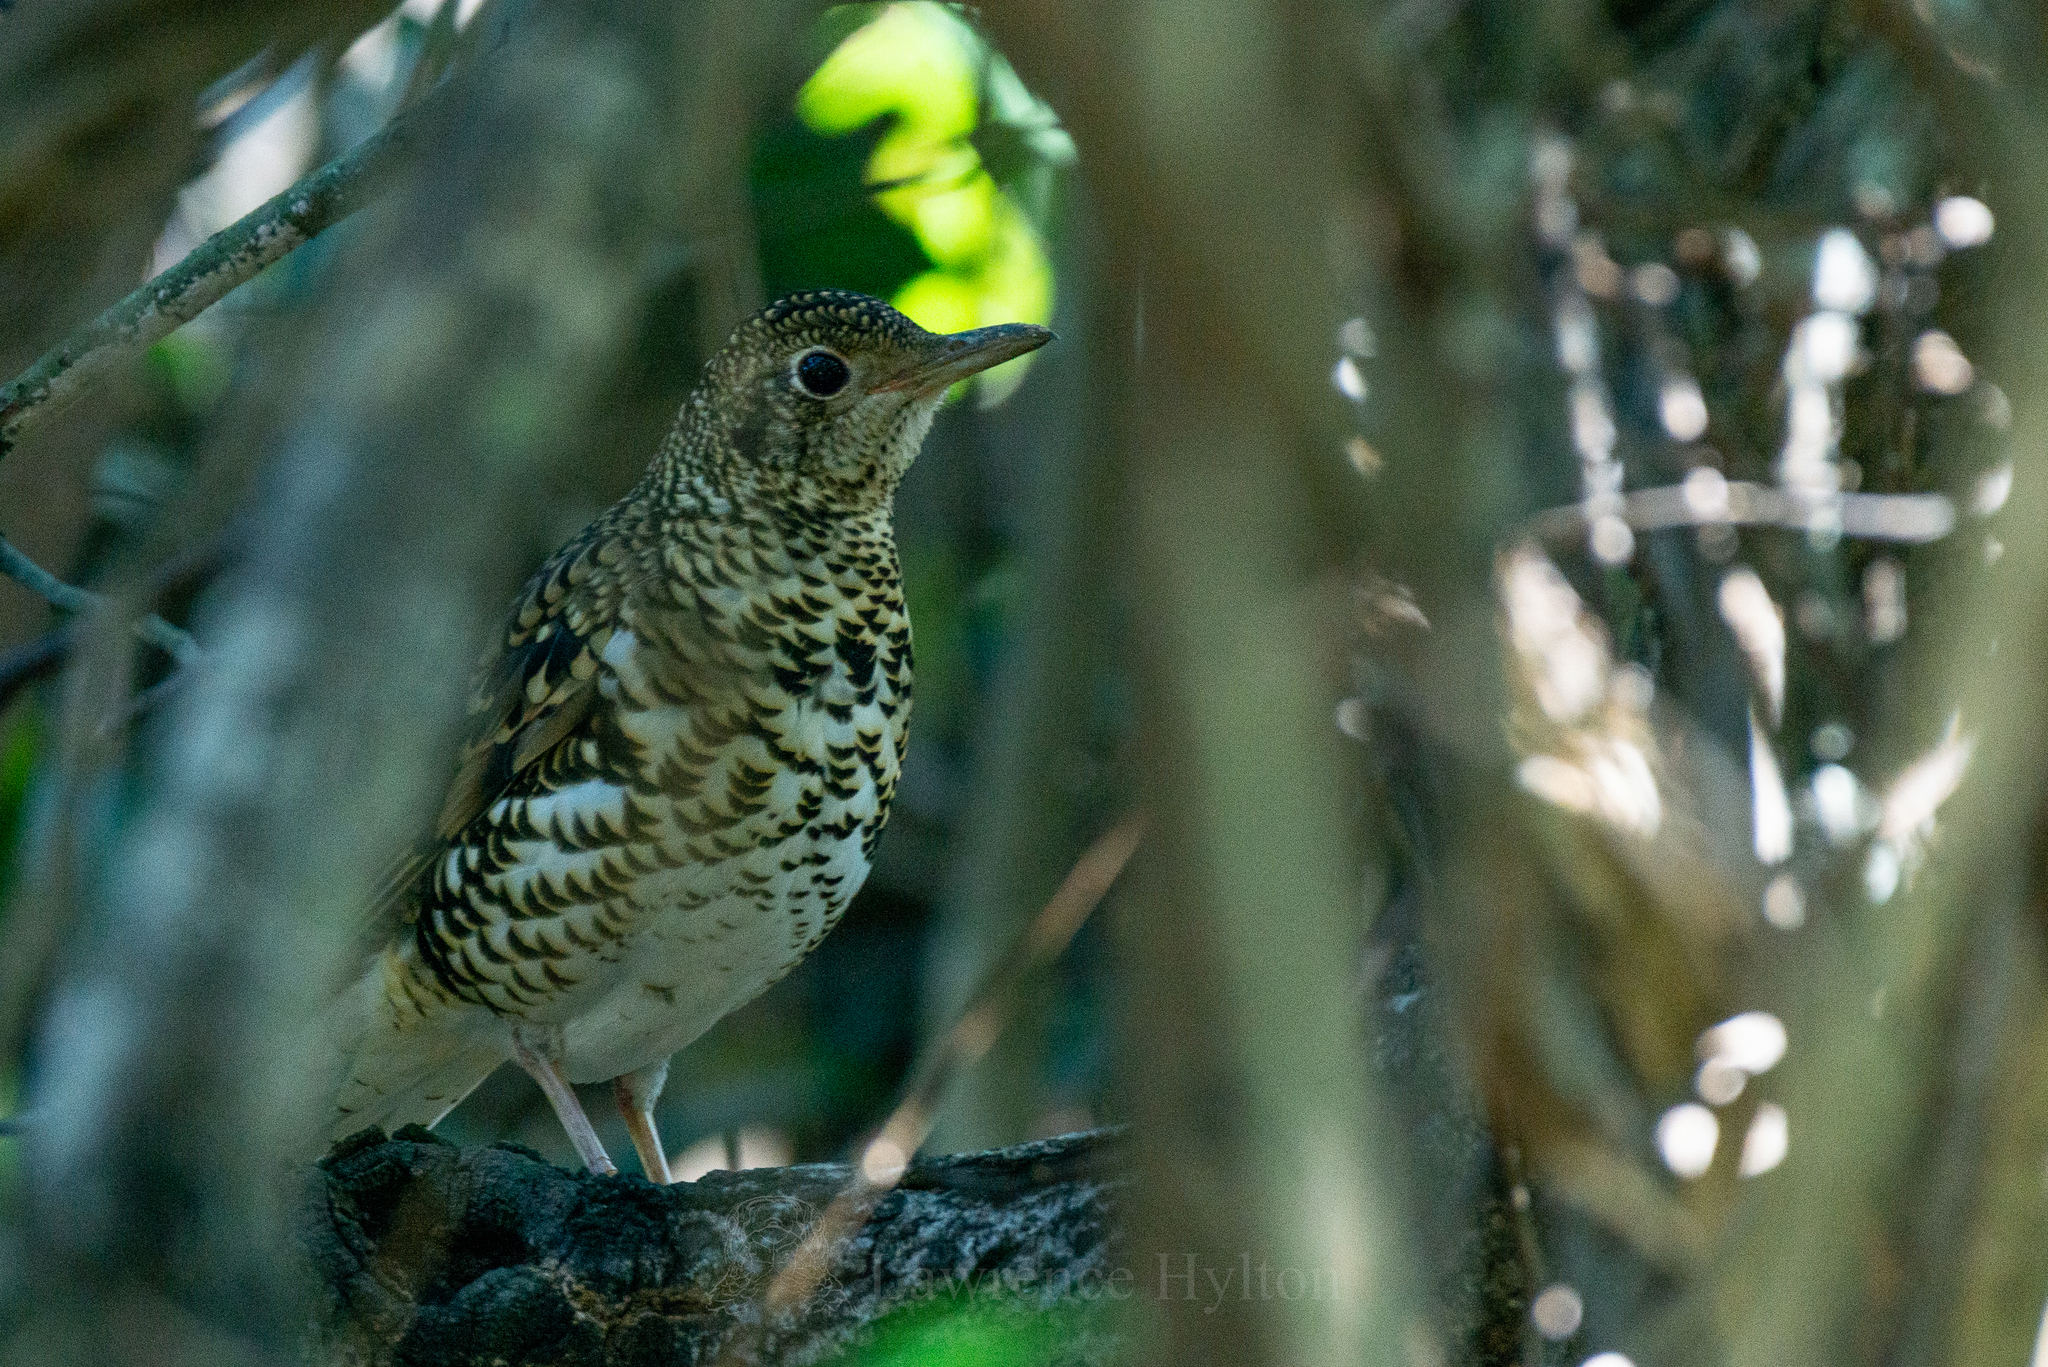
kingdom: Animalia
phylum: Chordata
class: Aves
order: Passeriformes
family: Turdidae
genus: Zoothera
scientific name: Zoothera aurea
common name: White's thrush
